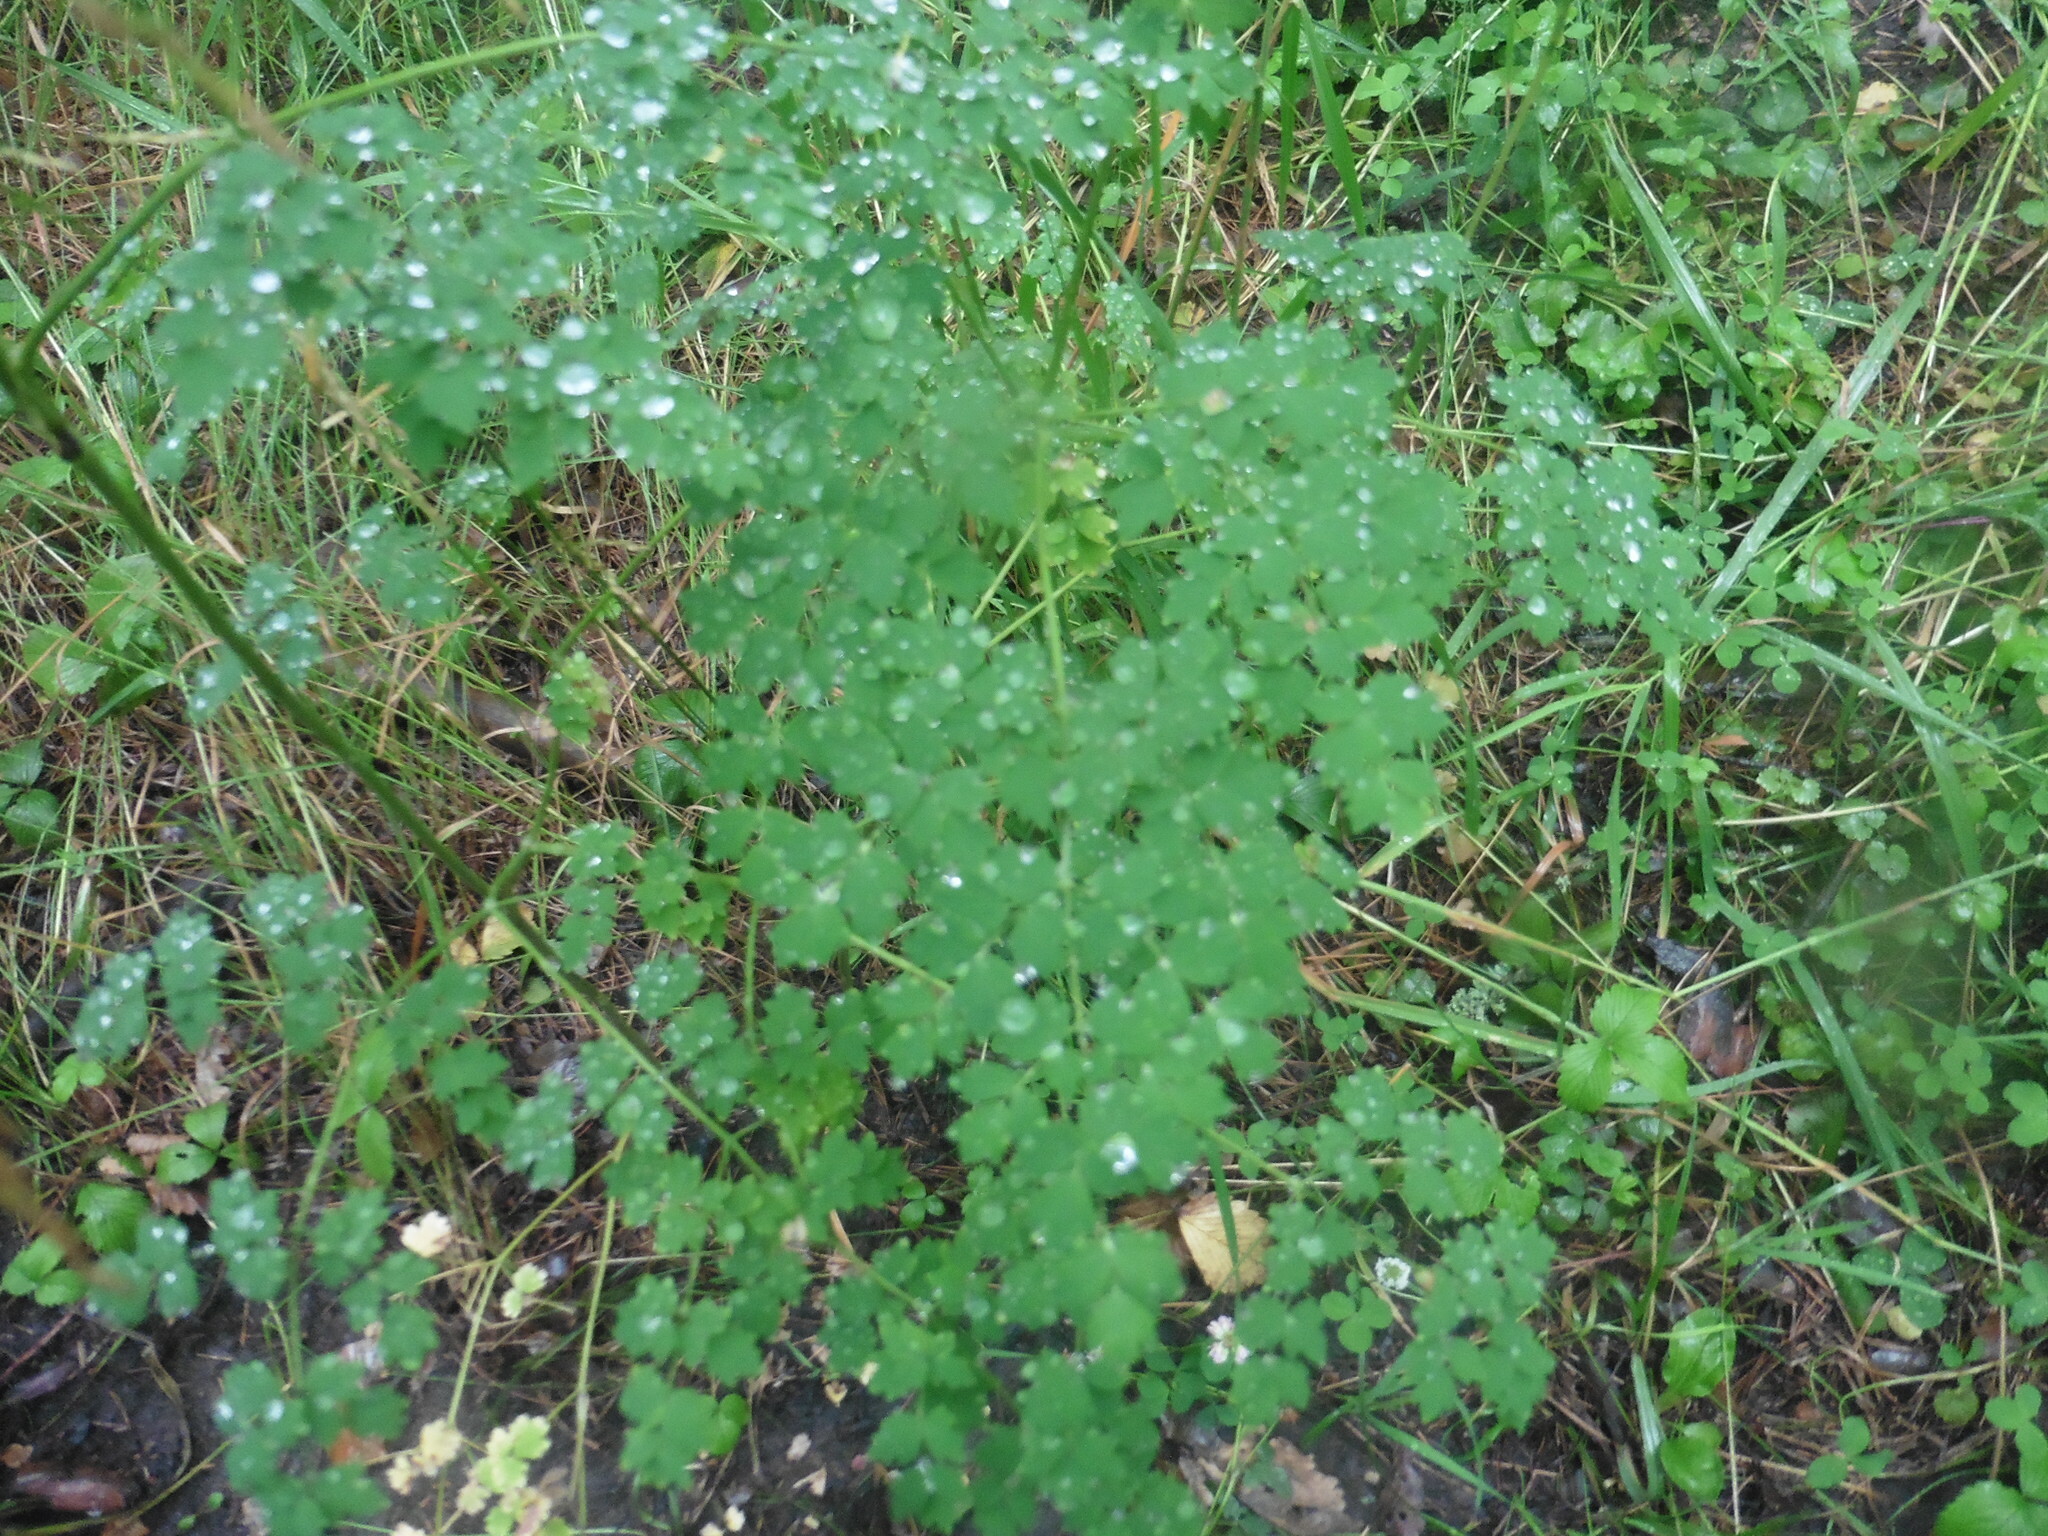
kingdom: Plantae
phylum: Tracheophyta
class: Magnoliopsida
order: Ranunculales
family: Ranunculaceae
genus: Thalictrum
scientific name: Thalictrum minus
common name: Lesser meadow-rue
